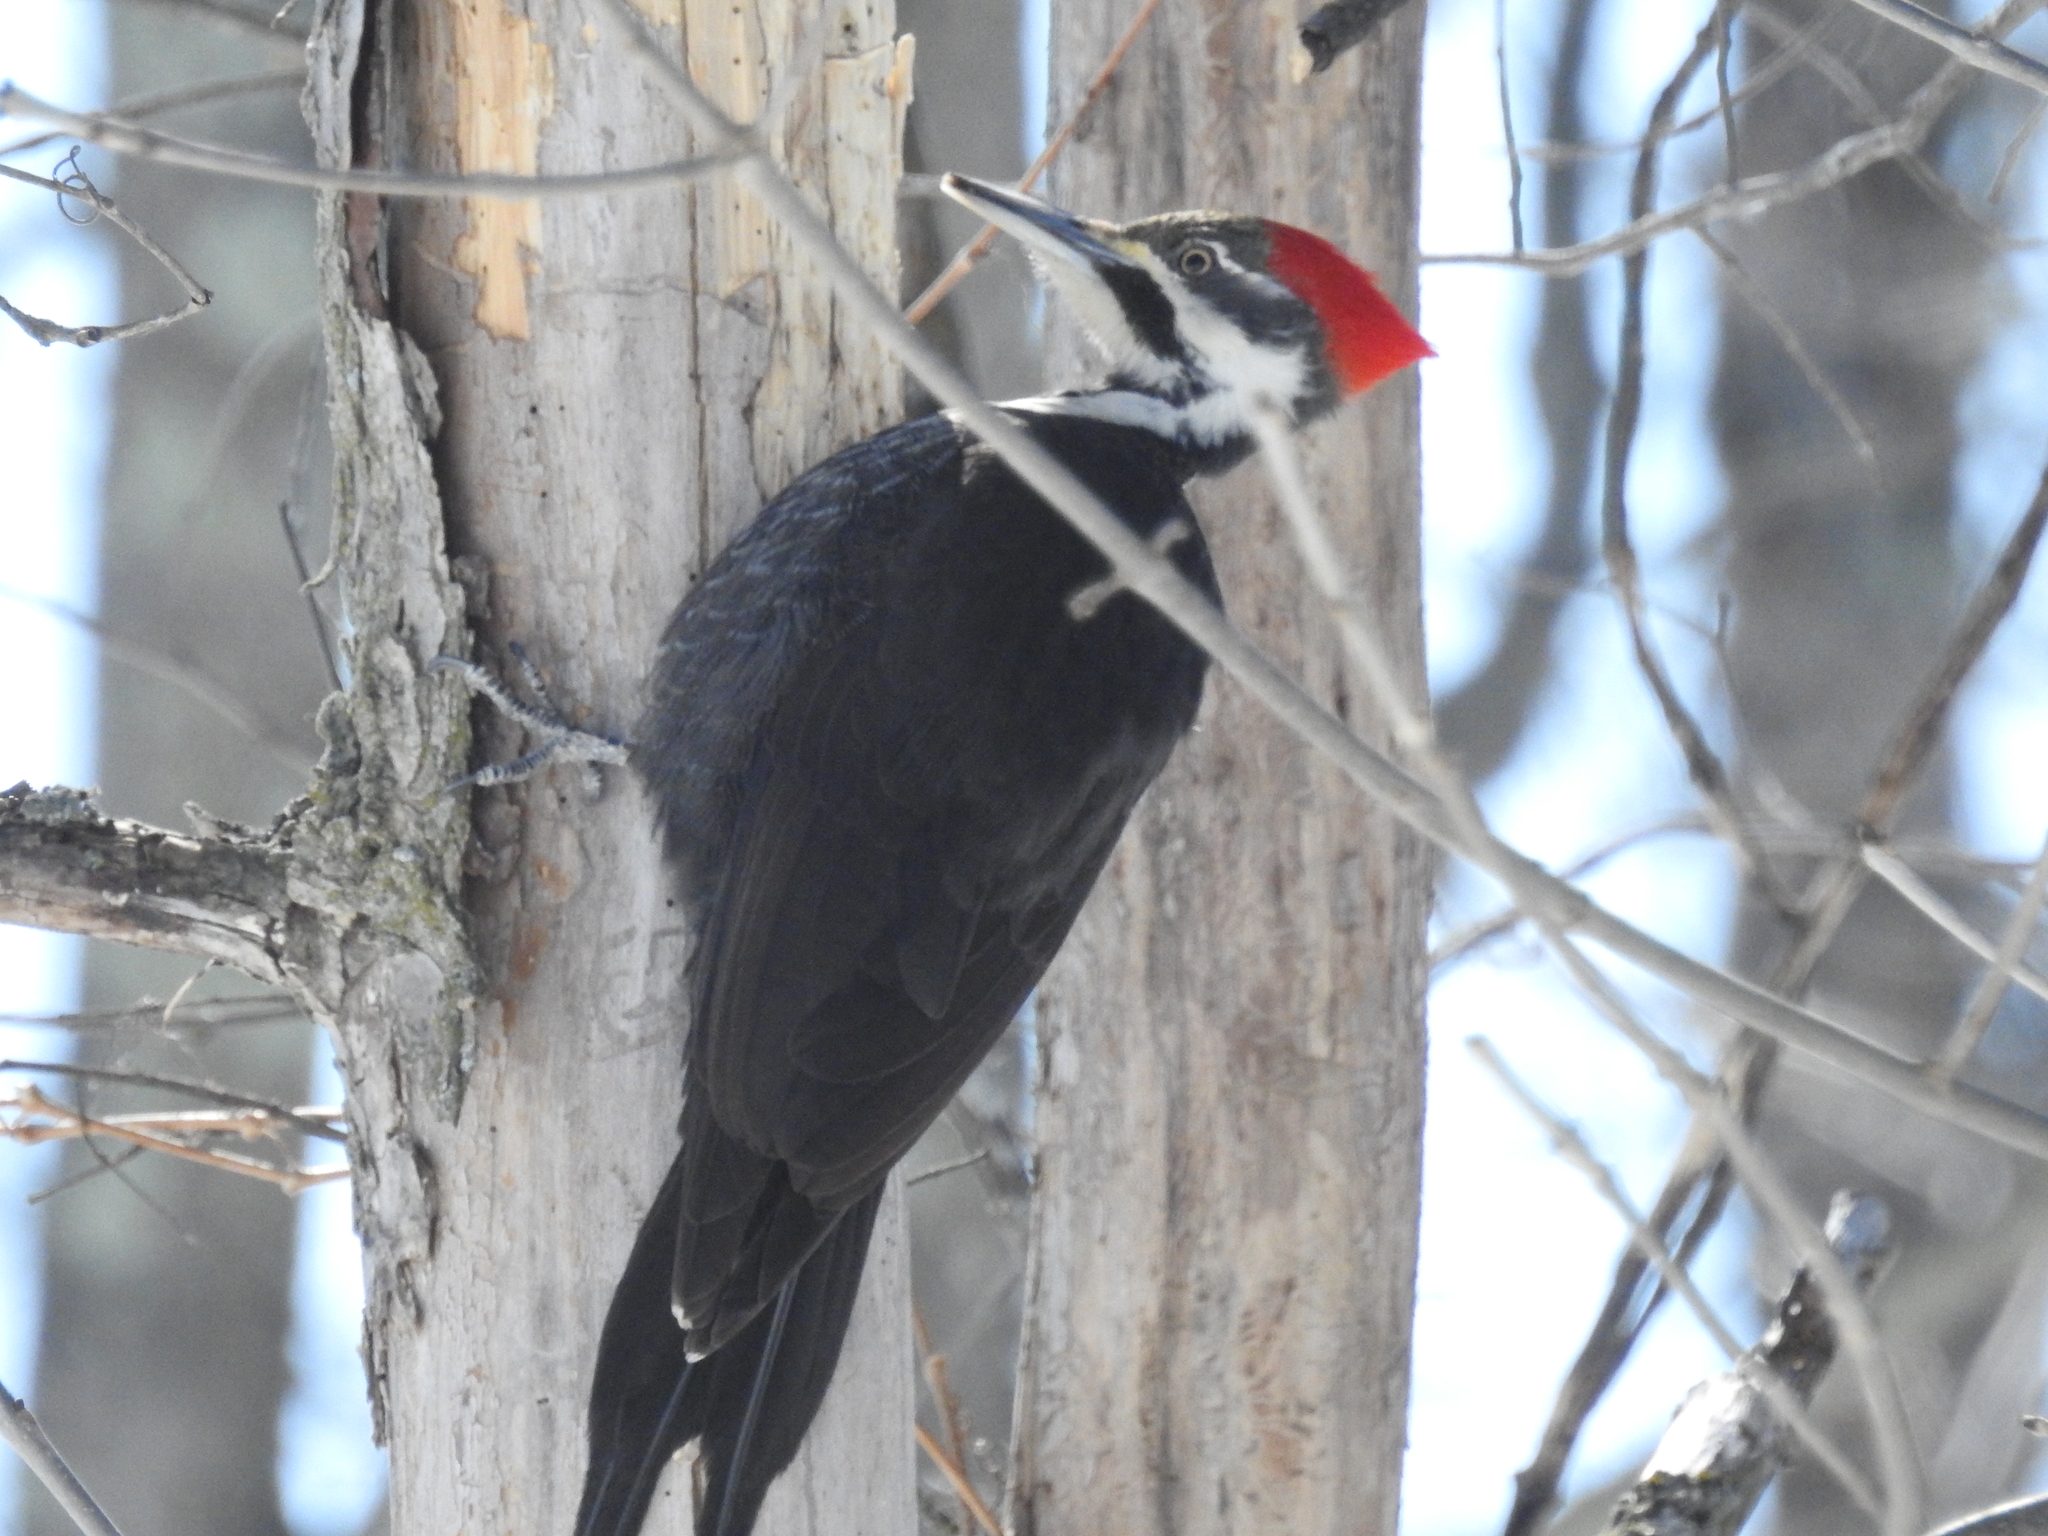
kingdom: Animalia
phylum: Chordata
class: Aves
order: Piciformes
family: Picidae
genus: Dryocopus
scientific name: Dryocopus pileatus
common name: Pileated woodpecker
